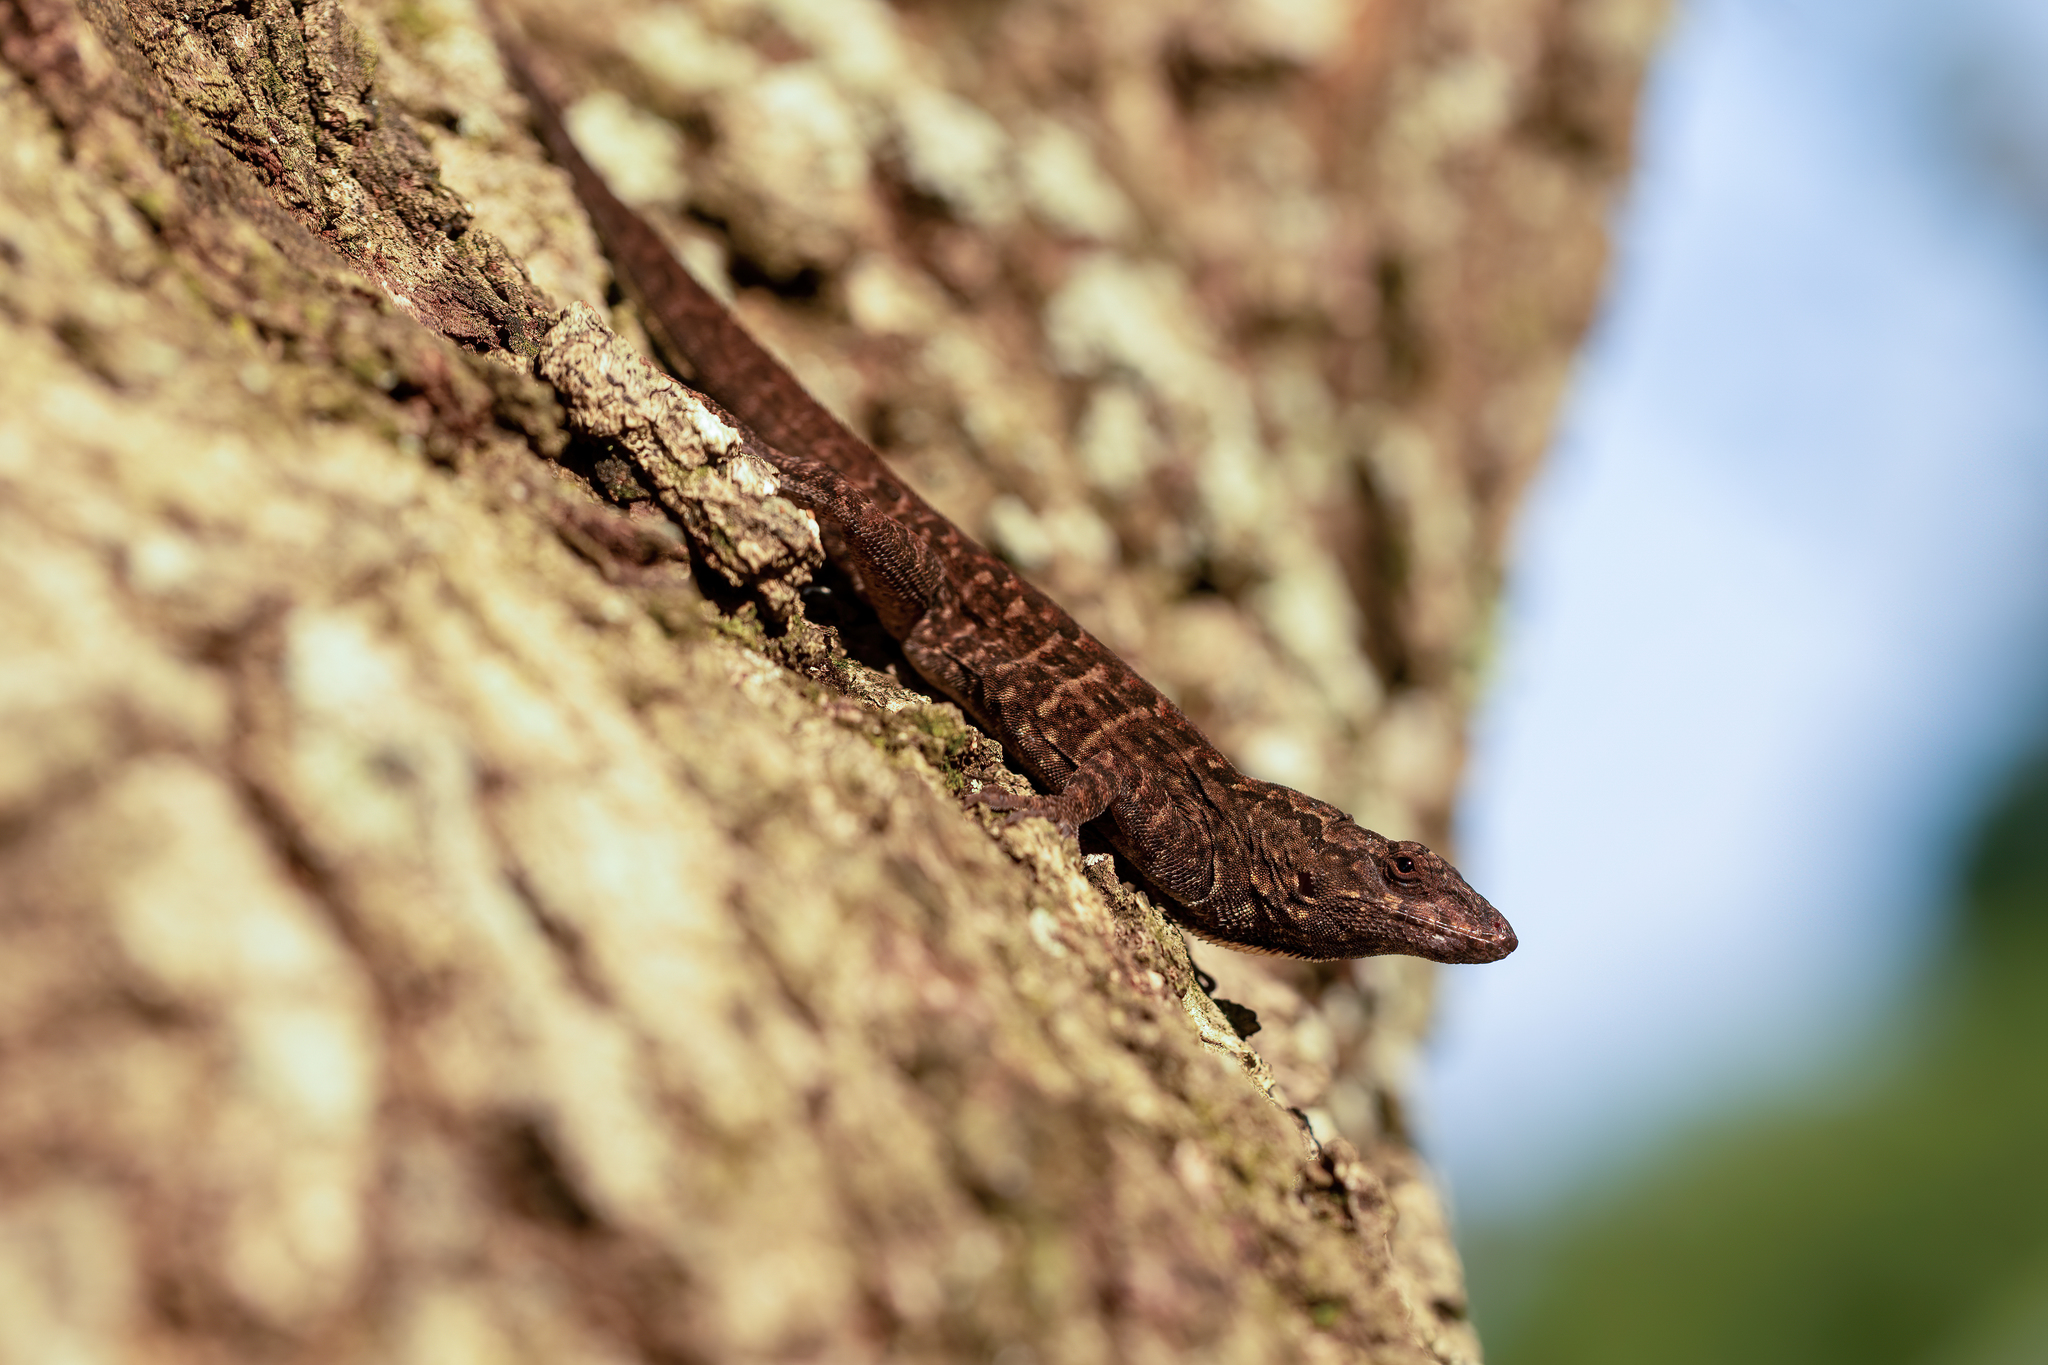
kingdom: Animalia
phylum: Chordata
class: Squamata
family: Dactyloidae
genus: Anolis
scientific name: Anolis sagrei
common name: Brown anole
